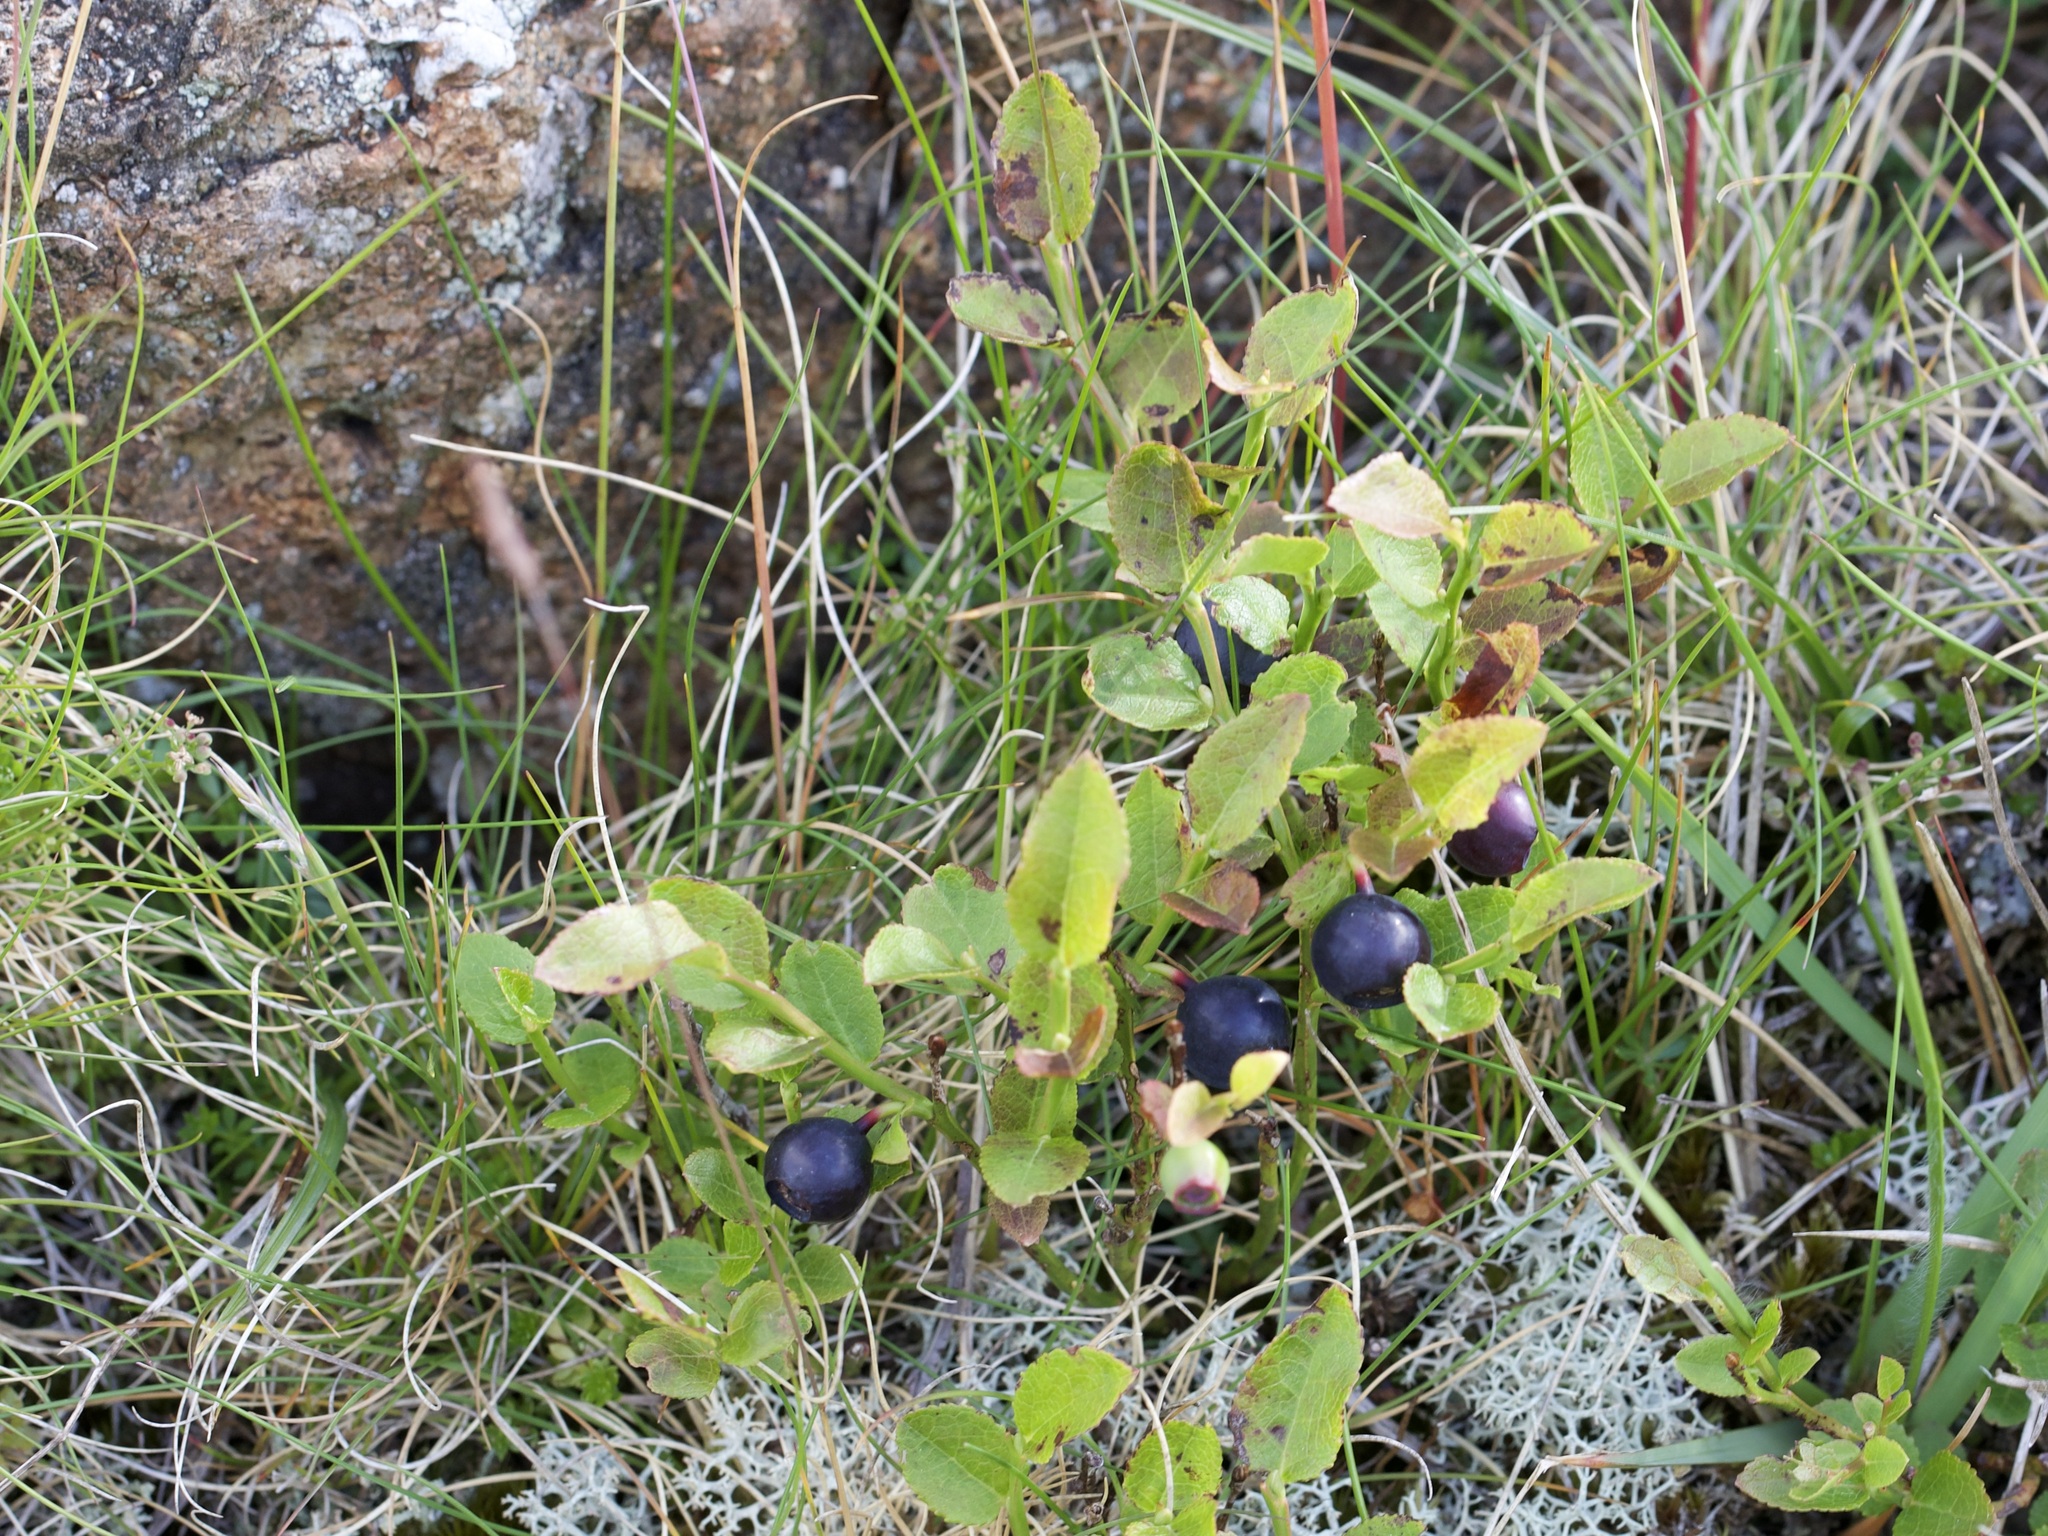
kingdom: Plantae
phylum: Tracheophyta
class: Magnoliopsida
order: Ericales
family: Ericaceae
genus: Vaccinium
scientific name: Vaccinium myrtillus
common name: Bilberry
